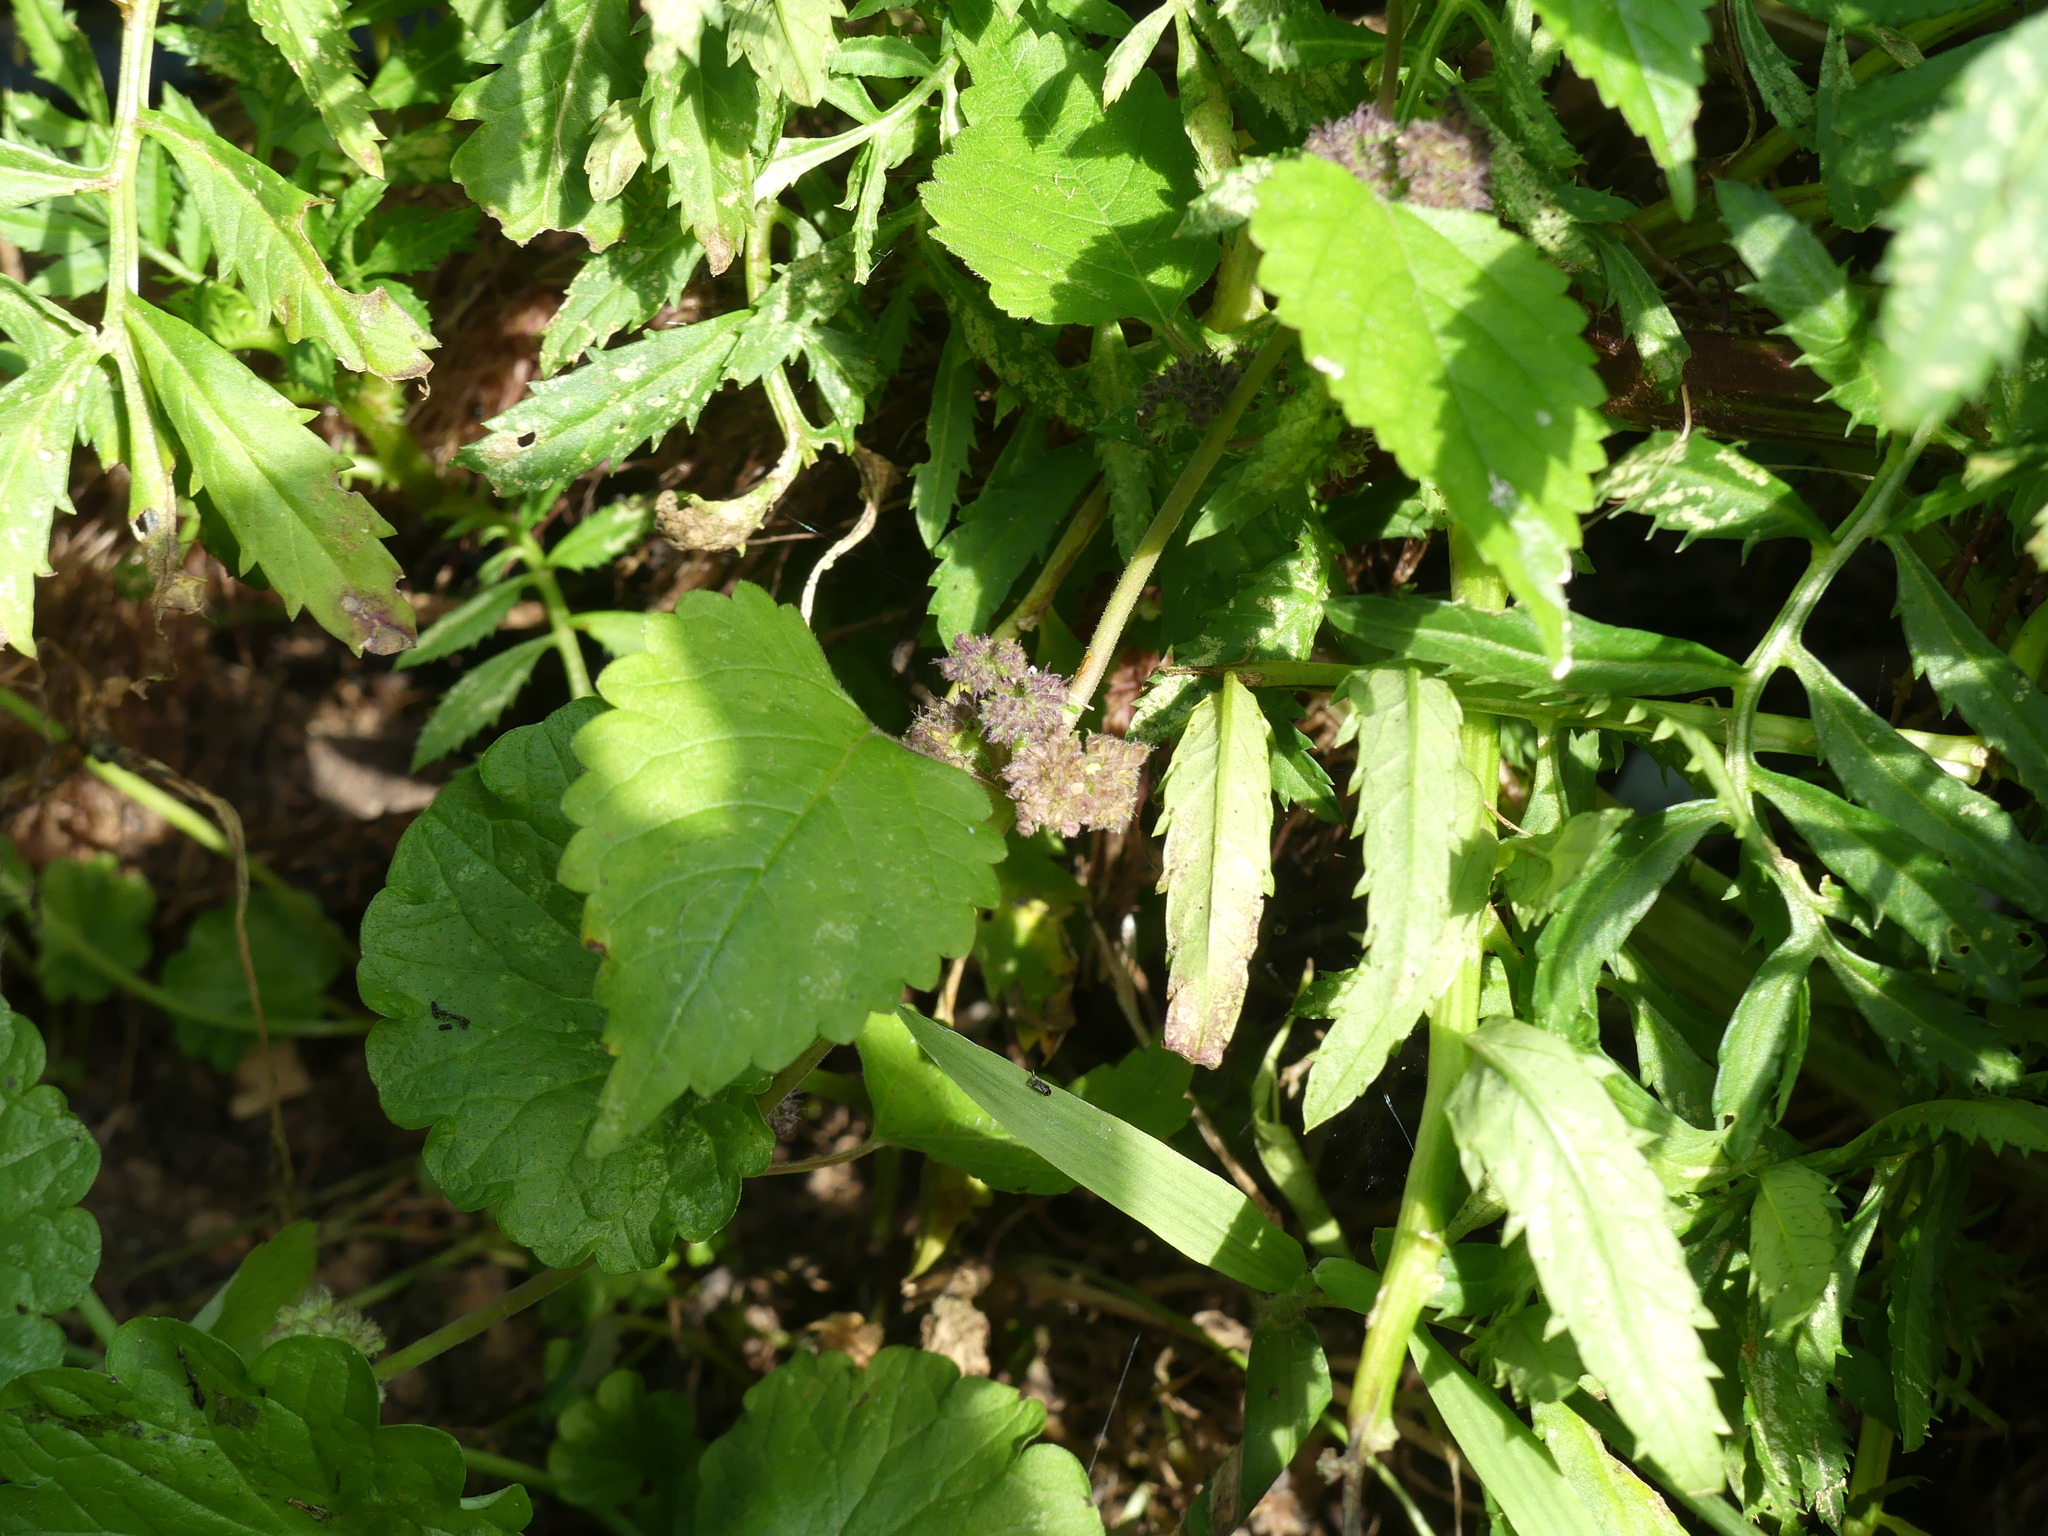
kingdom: Plantae
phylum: Tracheophyta
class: Magnoliopsida
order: Rosales
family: Moraceae
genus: Fatoua
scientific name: Fatoua villosa
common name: Hairy crabweed
